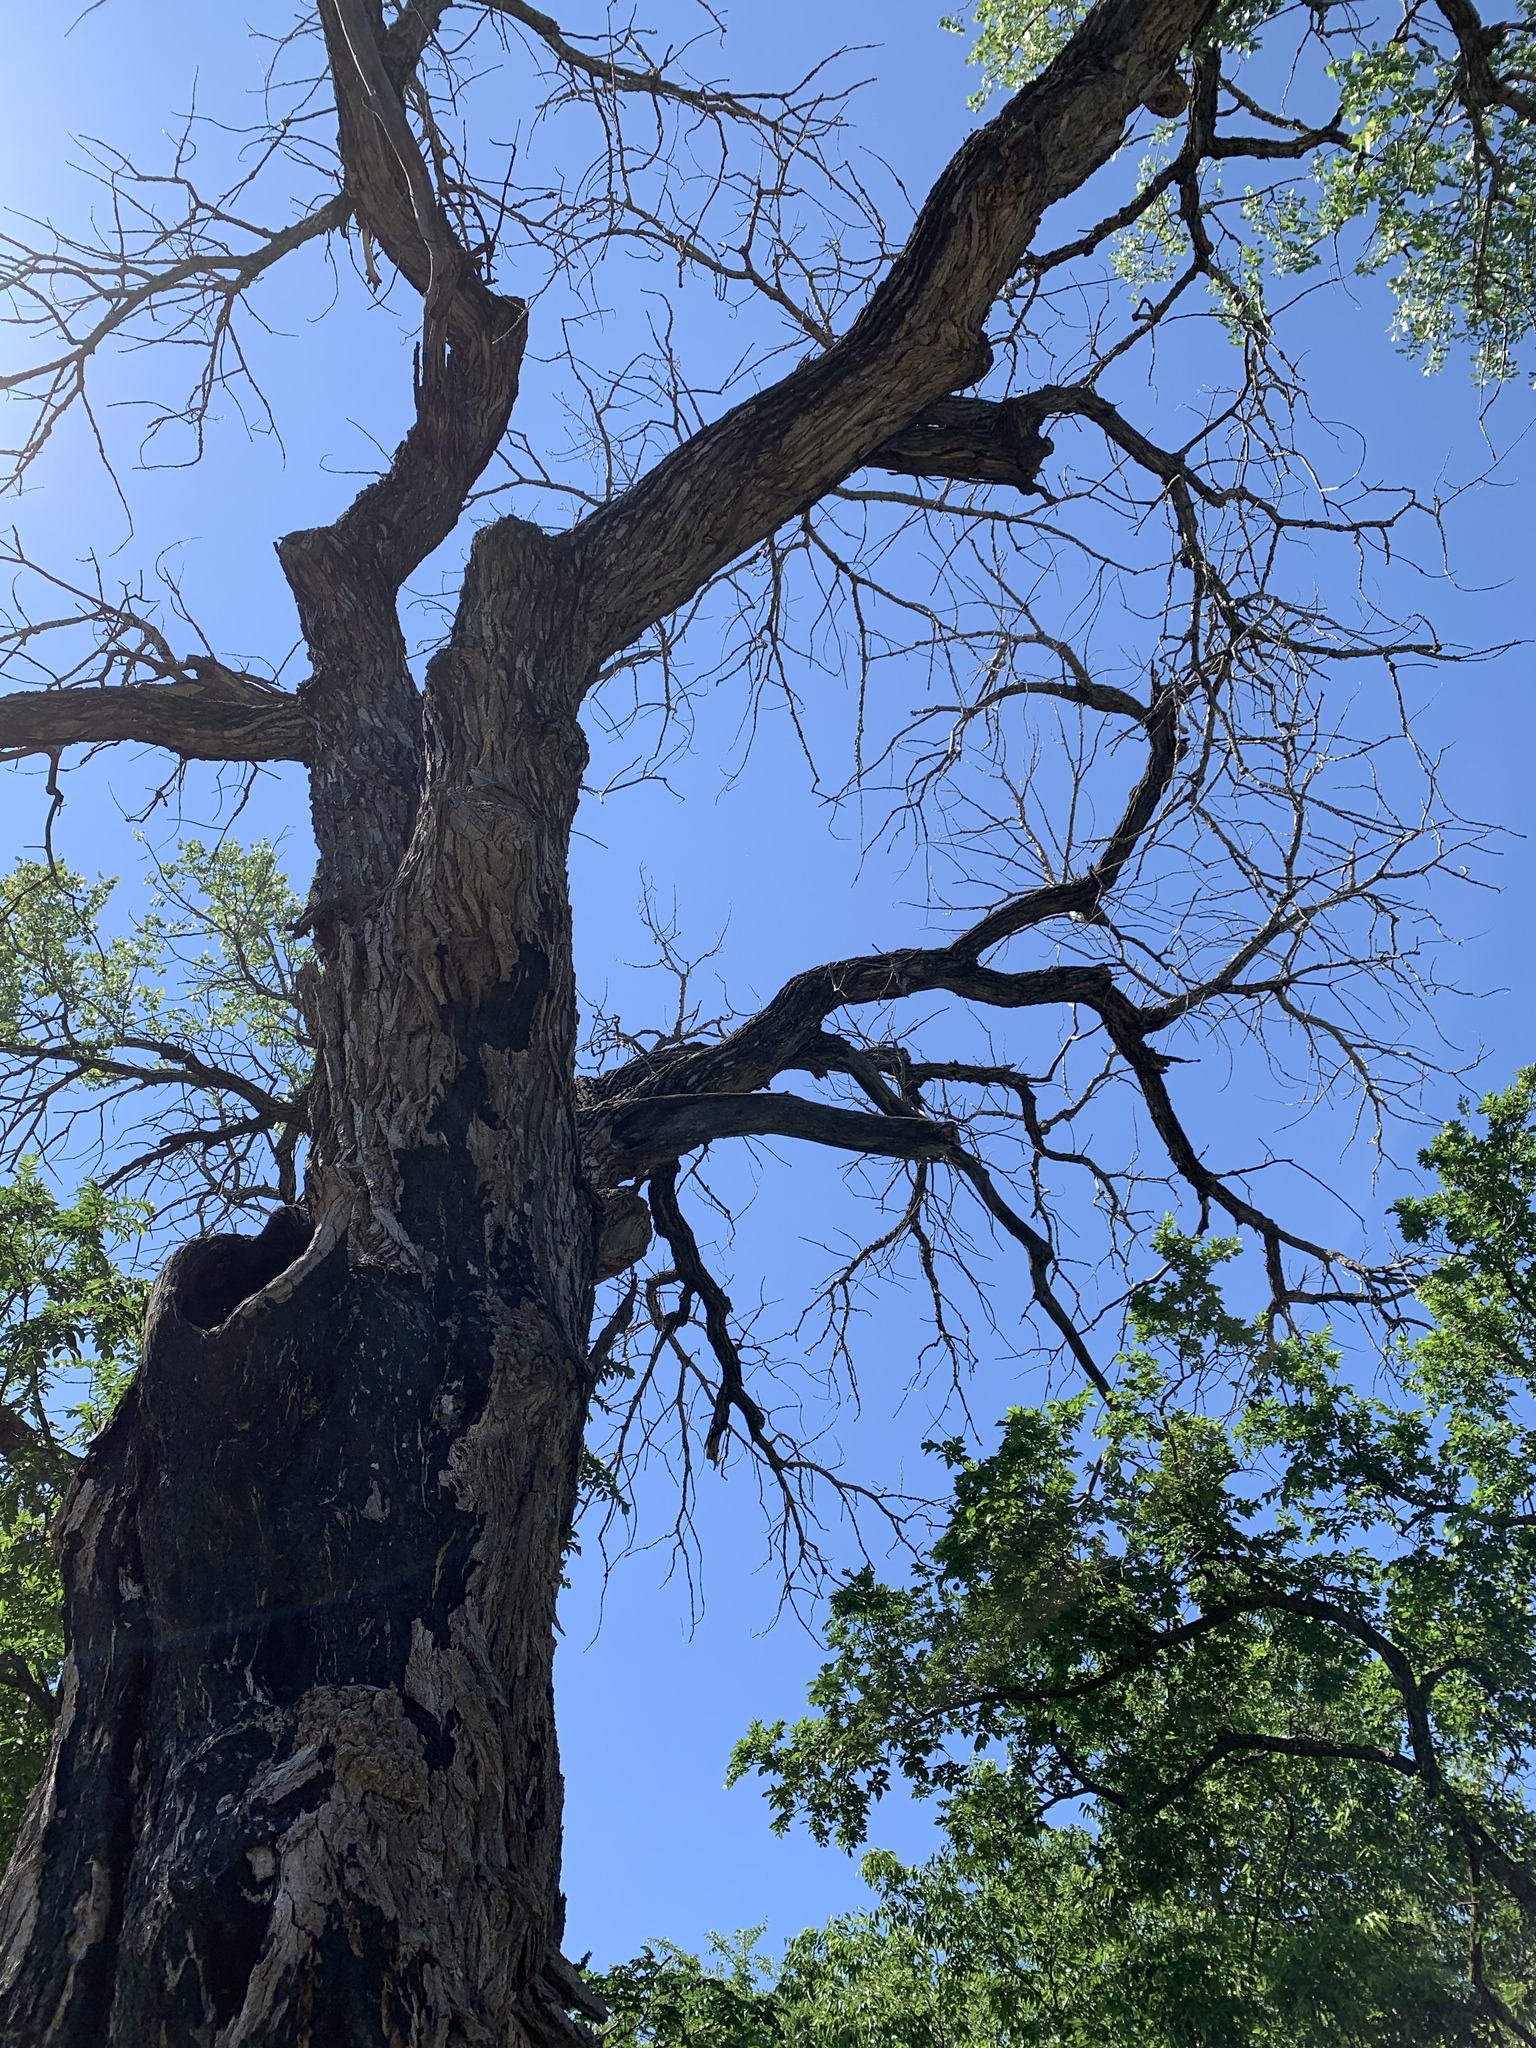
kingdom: Plantae
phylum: Tracheophyta
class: Magnoliopsida
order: Malpighiales
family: Salicaceae
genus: Populus
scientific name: Populus deltoides
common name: Eastern cottonwood
